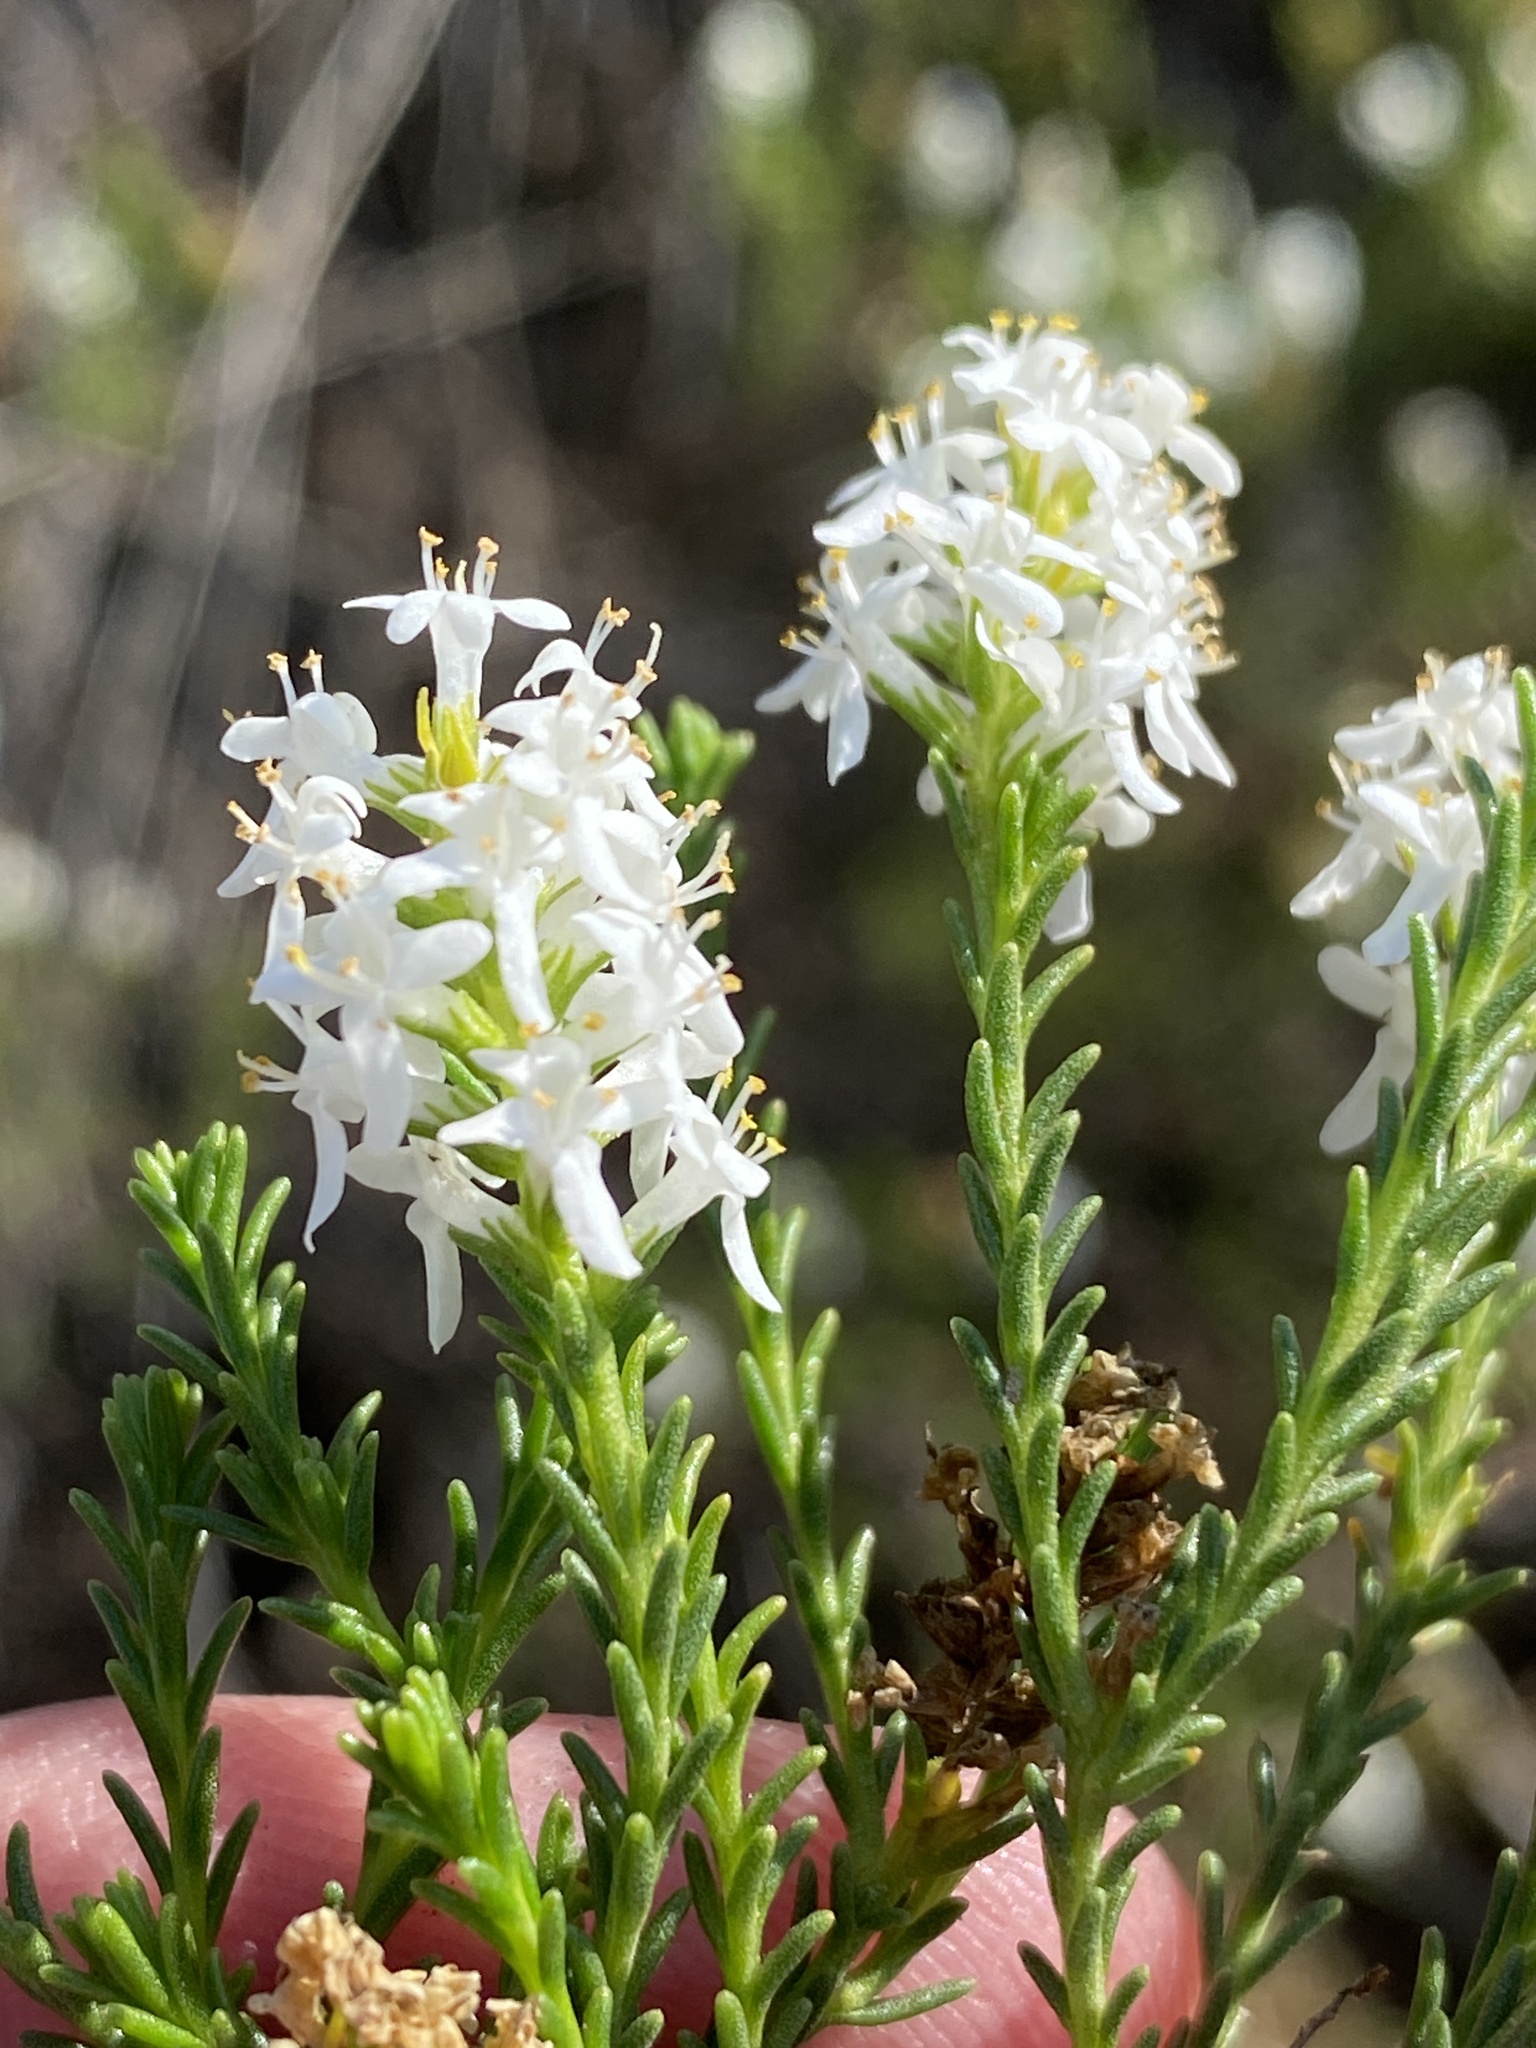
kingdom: Plantae
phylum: Tracheophyta
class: Magnoliopsida
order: Lamiales
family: Scrophulariaceae
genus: Selago
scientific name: Selago thomii
